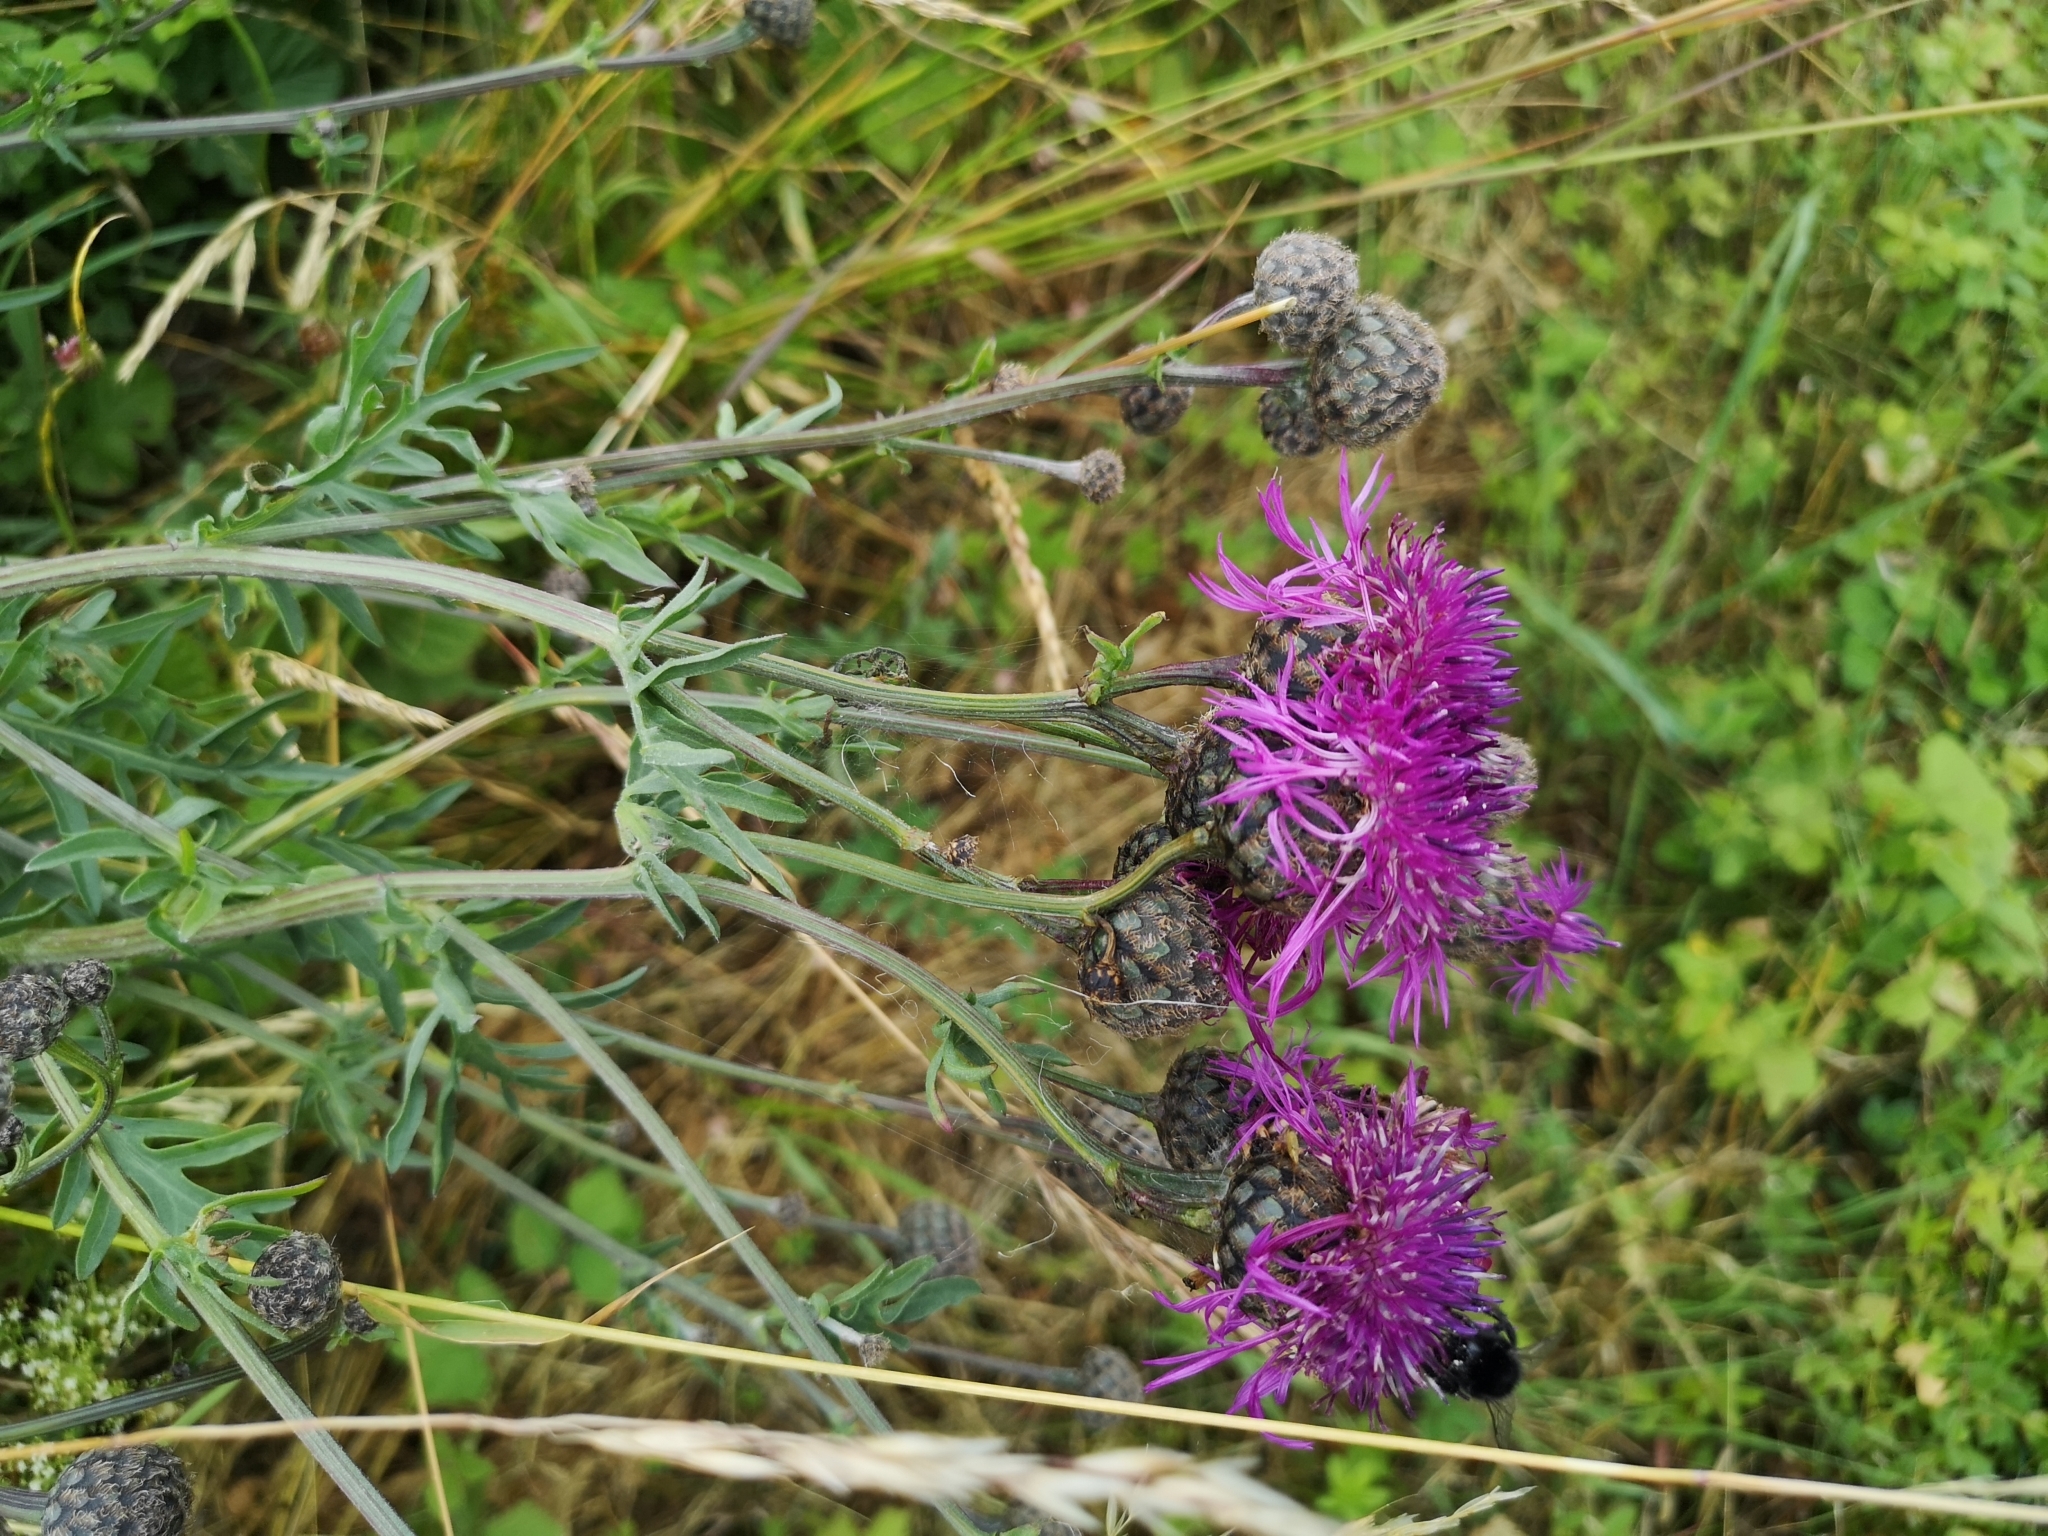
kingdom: Plantae
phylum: Tracheophyta
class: Magnoliopsida
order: Asterales
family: Asteraceae
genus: Centaurea
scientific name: Centaurea scabiosa
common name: Greater knapweed
